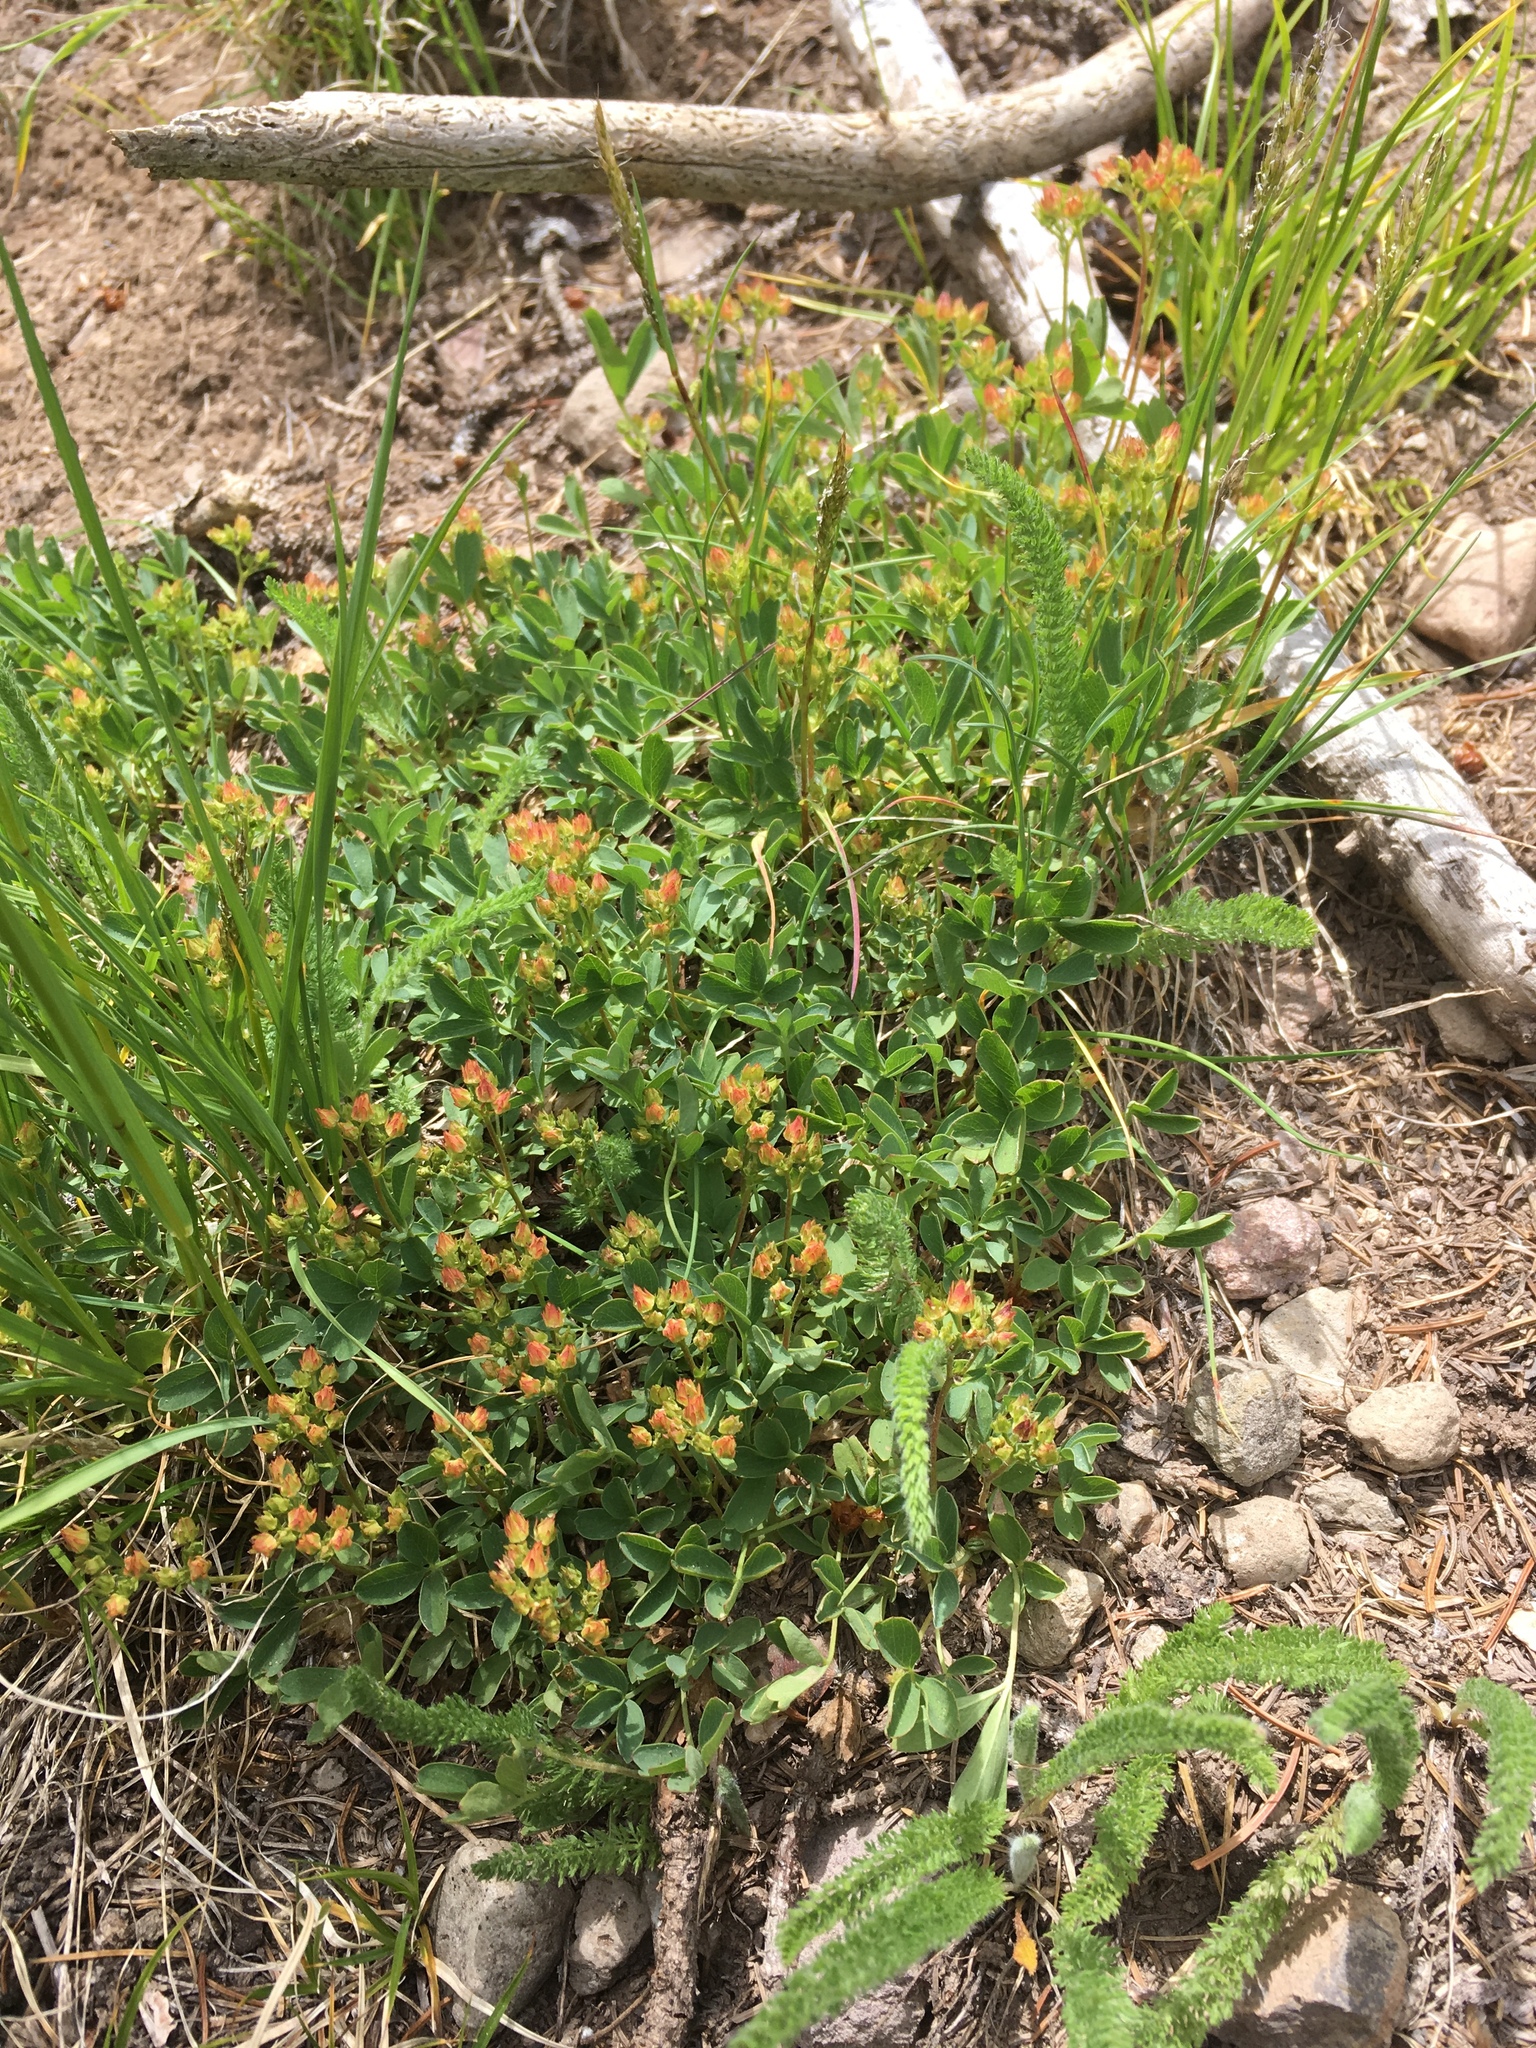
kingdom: Plantae
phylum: Tracheophyta
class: Magnoliopsida
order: Rosales
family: Rosaceae
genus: Sibbaldia
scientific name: Sibbaldia procumbens
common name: Creeping sibbaldia
